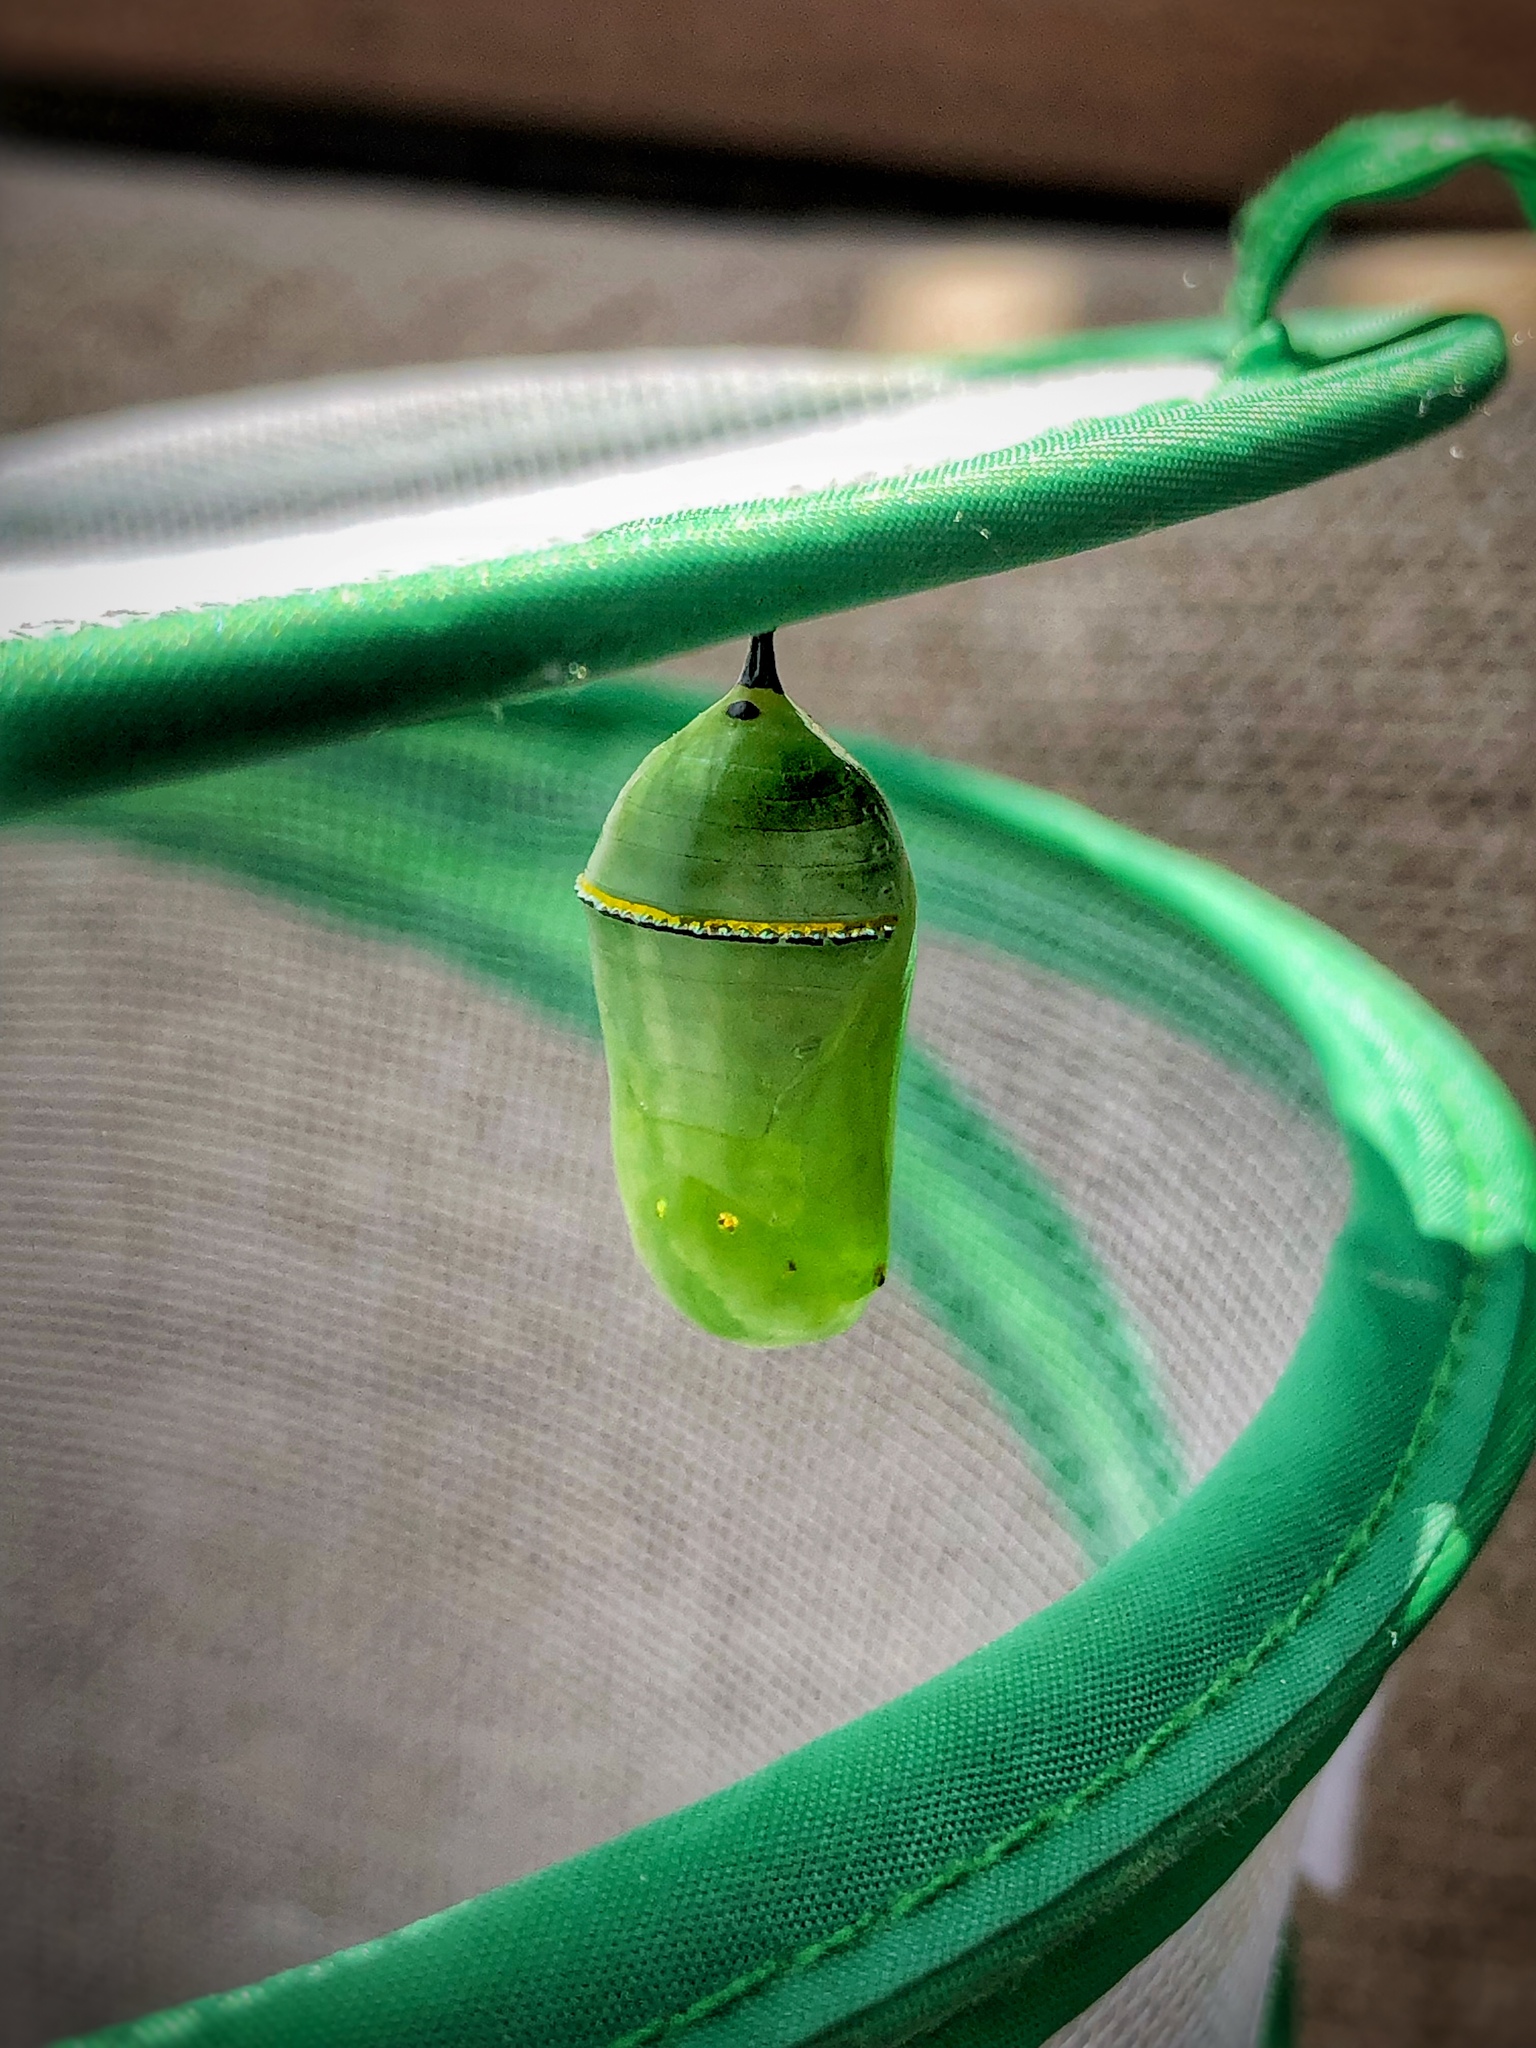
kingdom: Animalia
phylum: Arthropoda
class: Insecta
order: Lepidoptera
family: Nymphalidae
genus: Danaus
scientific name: Danaus plexippus
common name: Monarch
